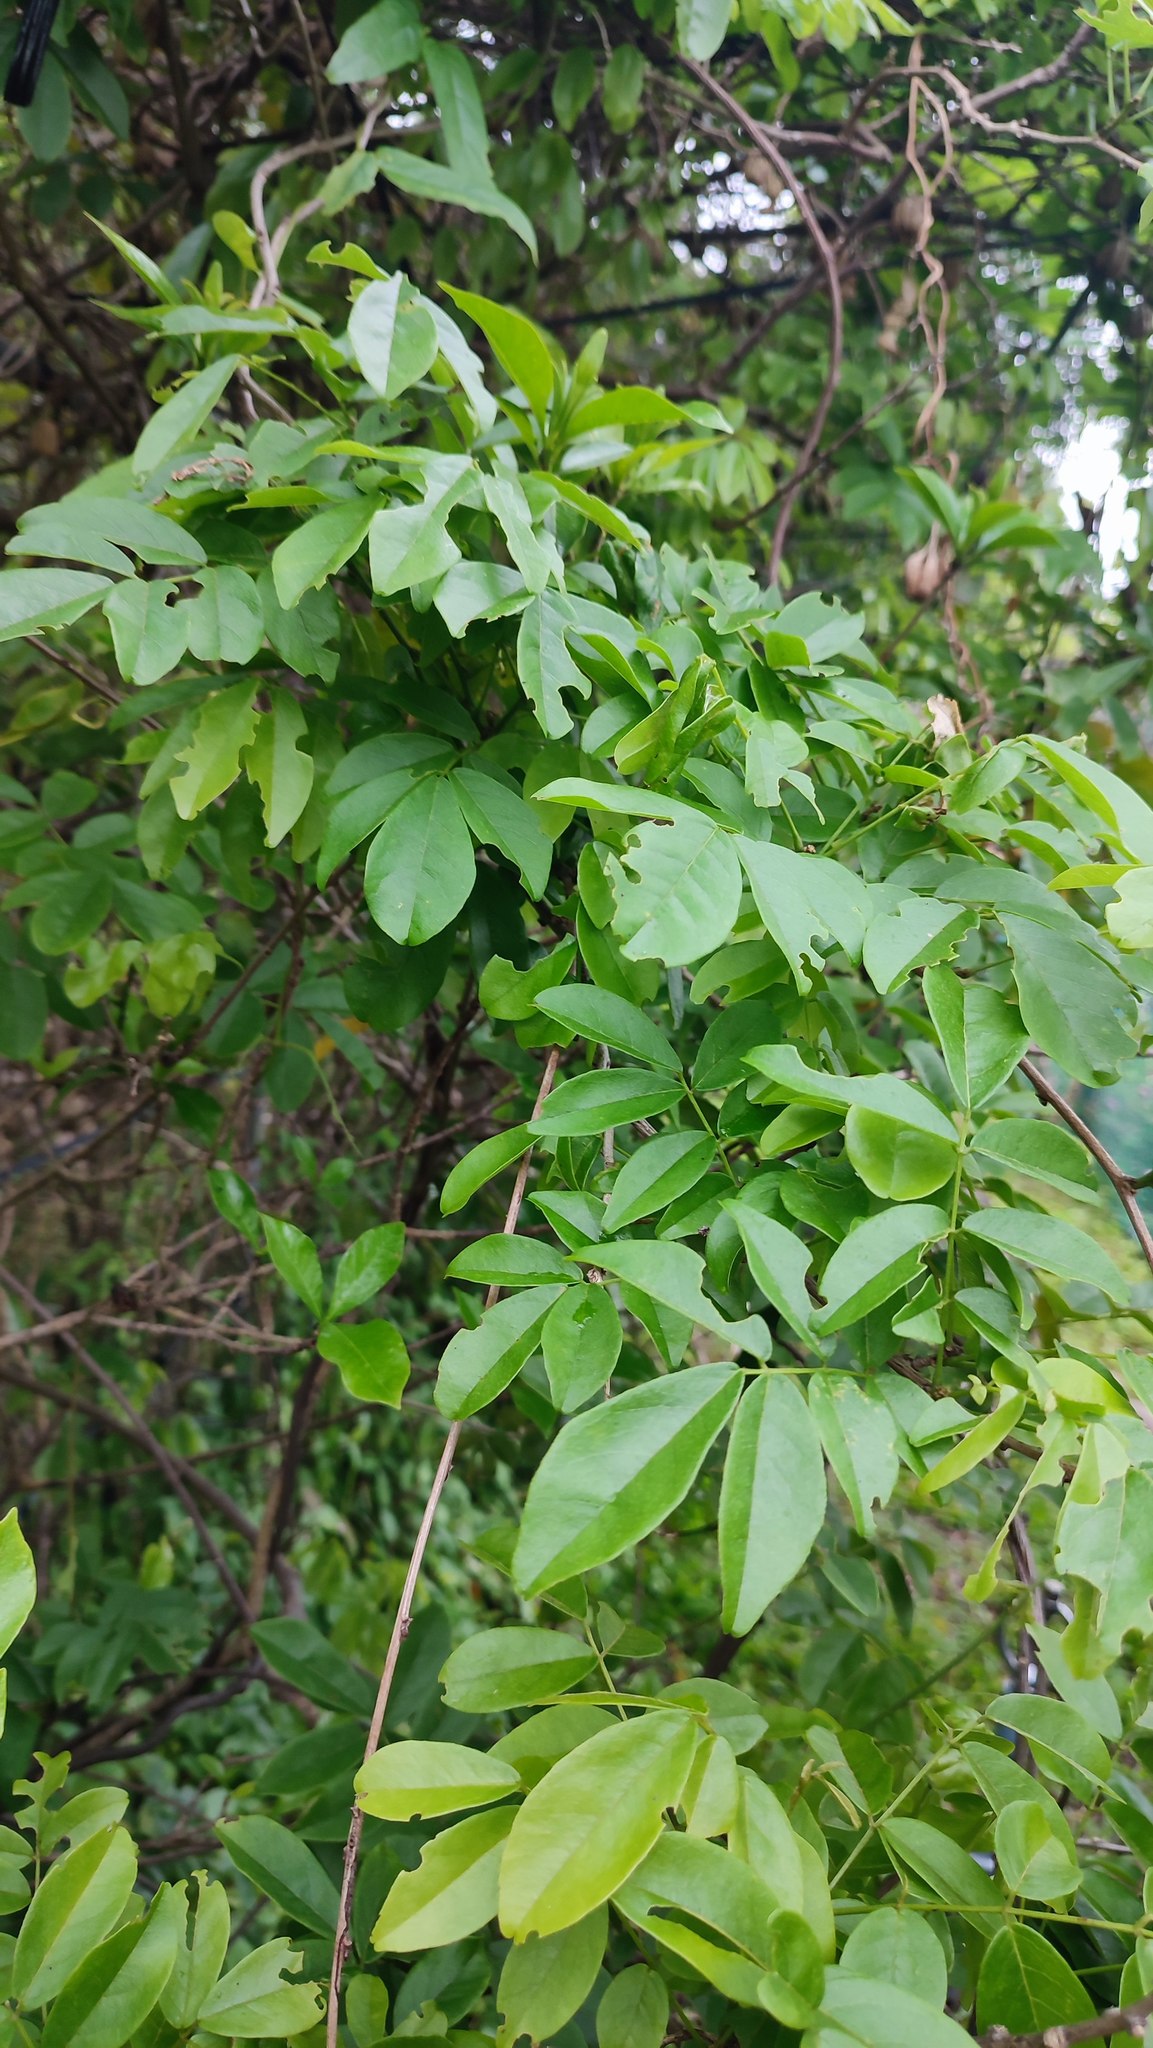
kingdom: Plantae
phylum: Tracheophyta
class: Magnoliopsida
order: Fabales
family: Fabaceae
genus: Wisteriopsis
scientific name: Wisteriopsis reticulata
